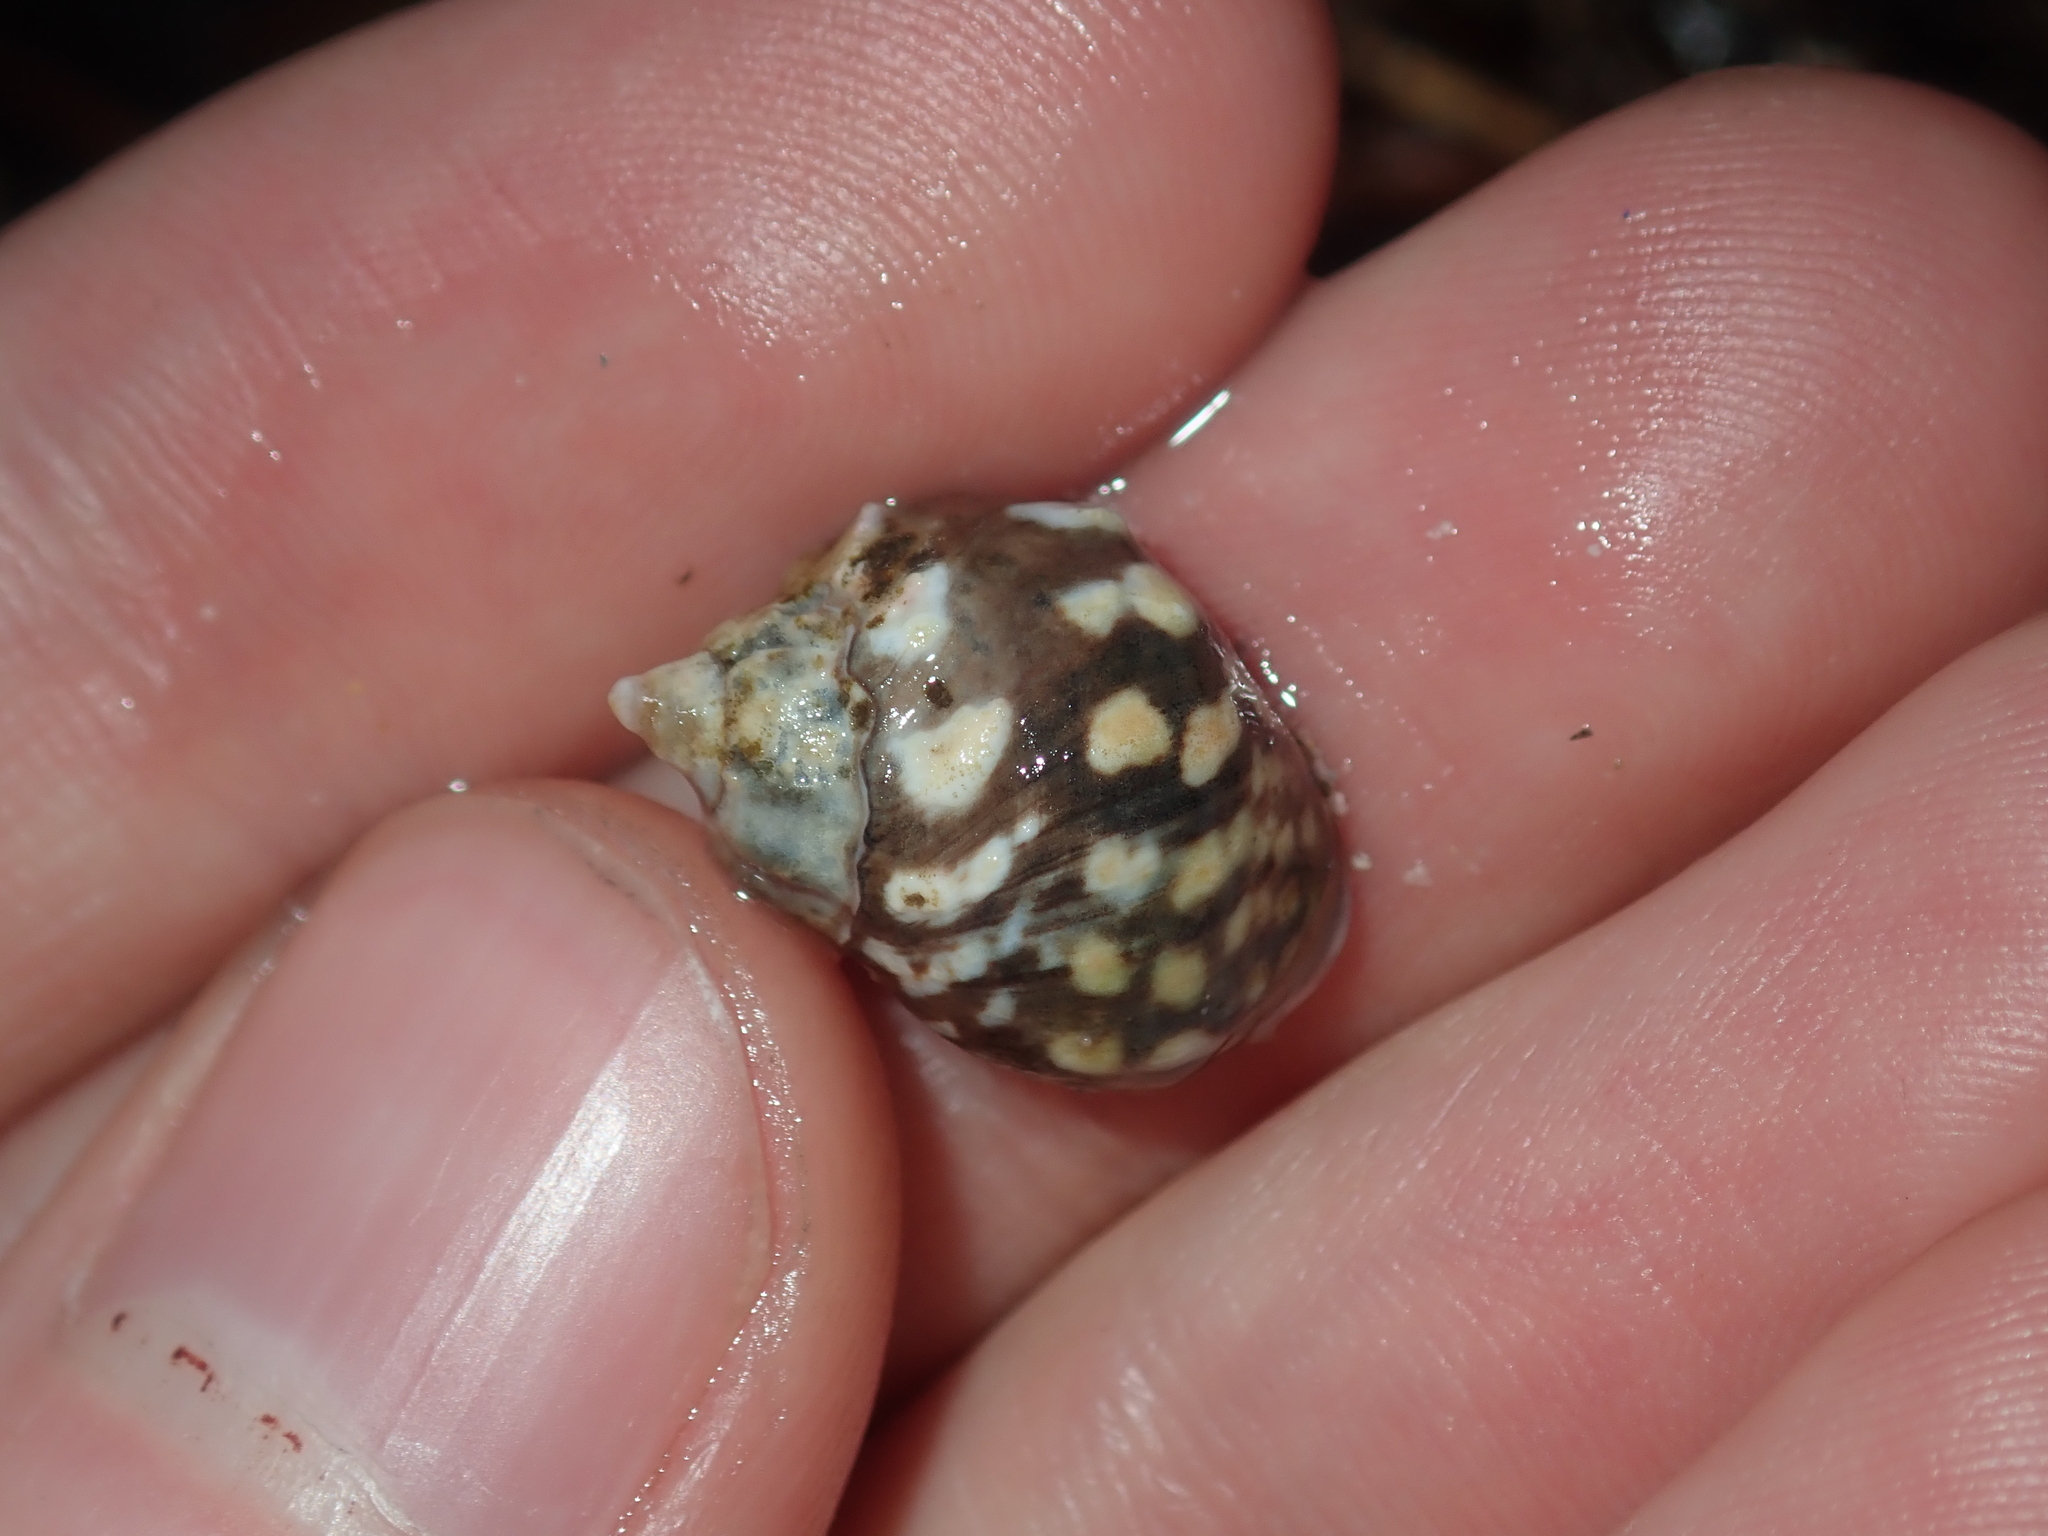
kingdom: Animalia
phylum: Mollusca
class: Gastropoda
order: Littorinimorpha
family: Littorinidae
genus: Echinolittorina
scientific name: Echinolittorina australis
